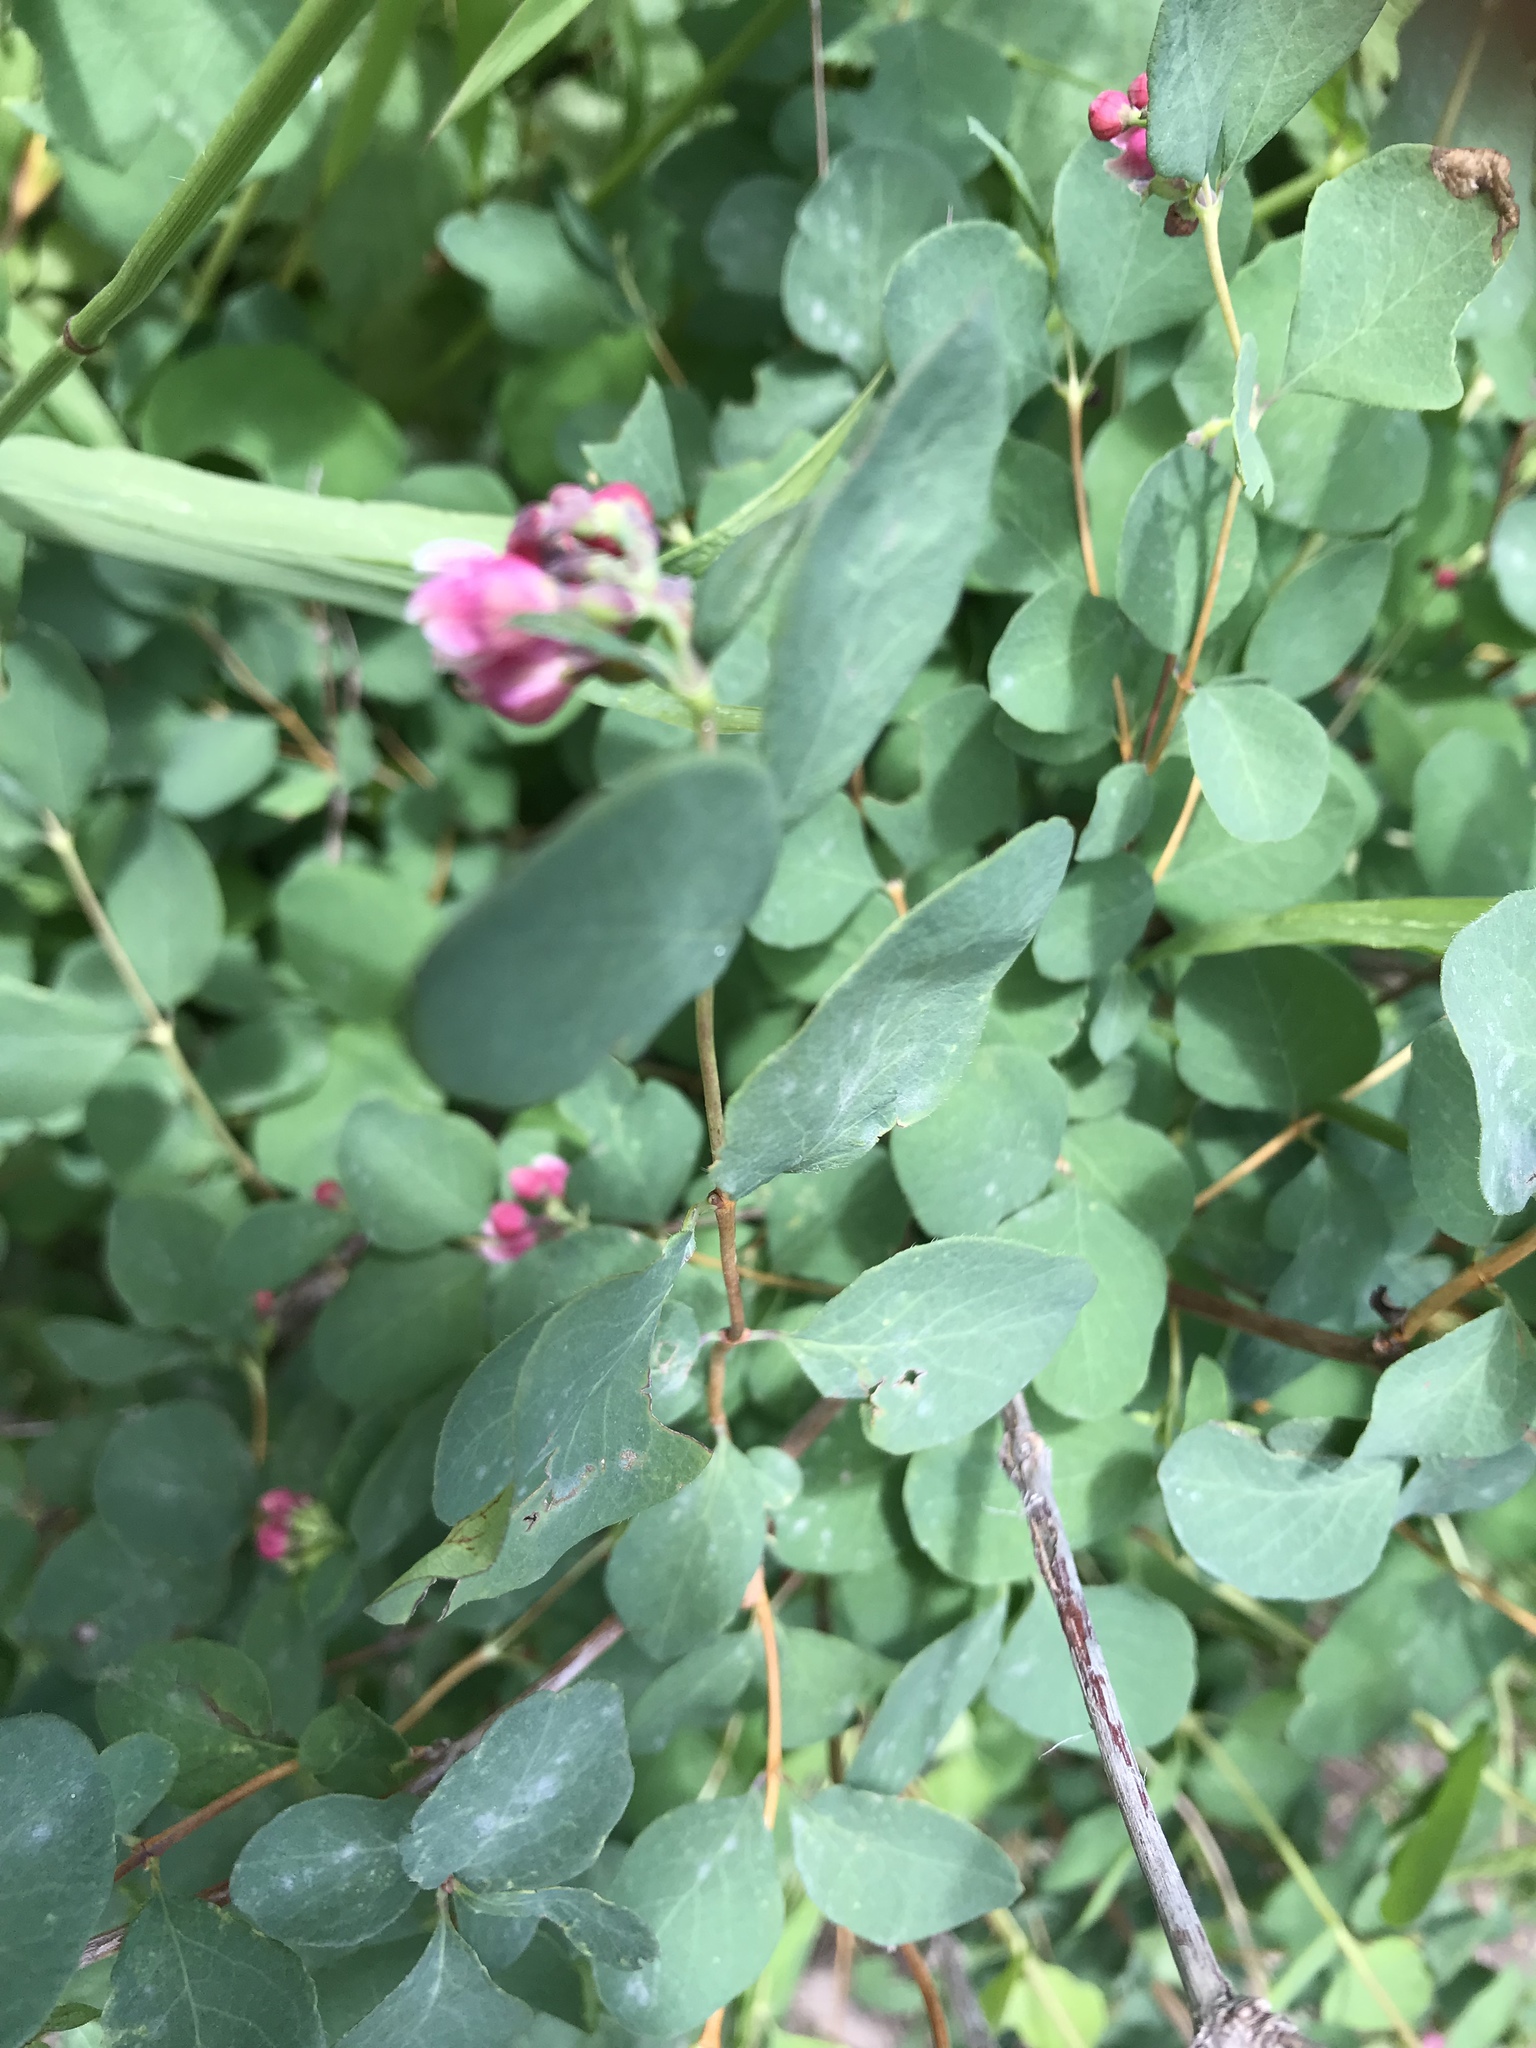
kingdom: Plantae
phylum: Tracheophyta
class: Magnoliopsida
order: Dipsacales
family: Caprifoliaceae
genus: Symphoricarpos
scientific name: Symphoricarpos albus
